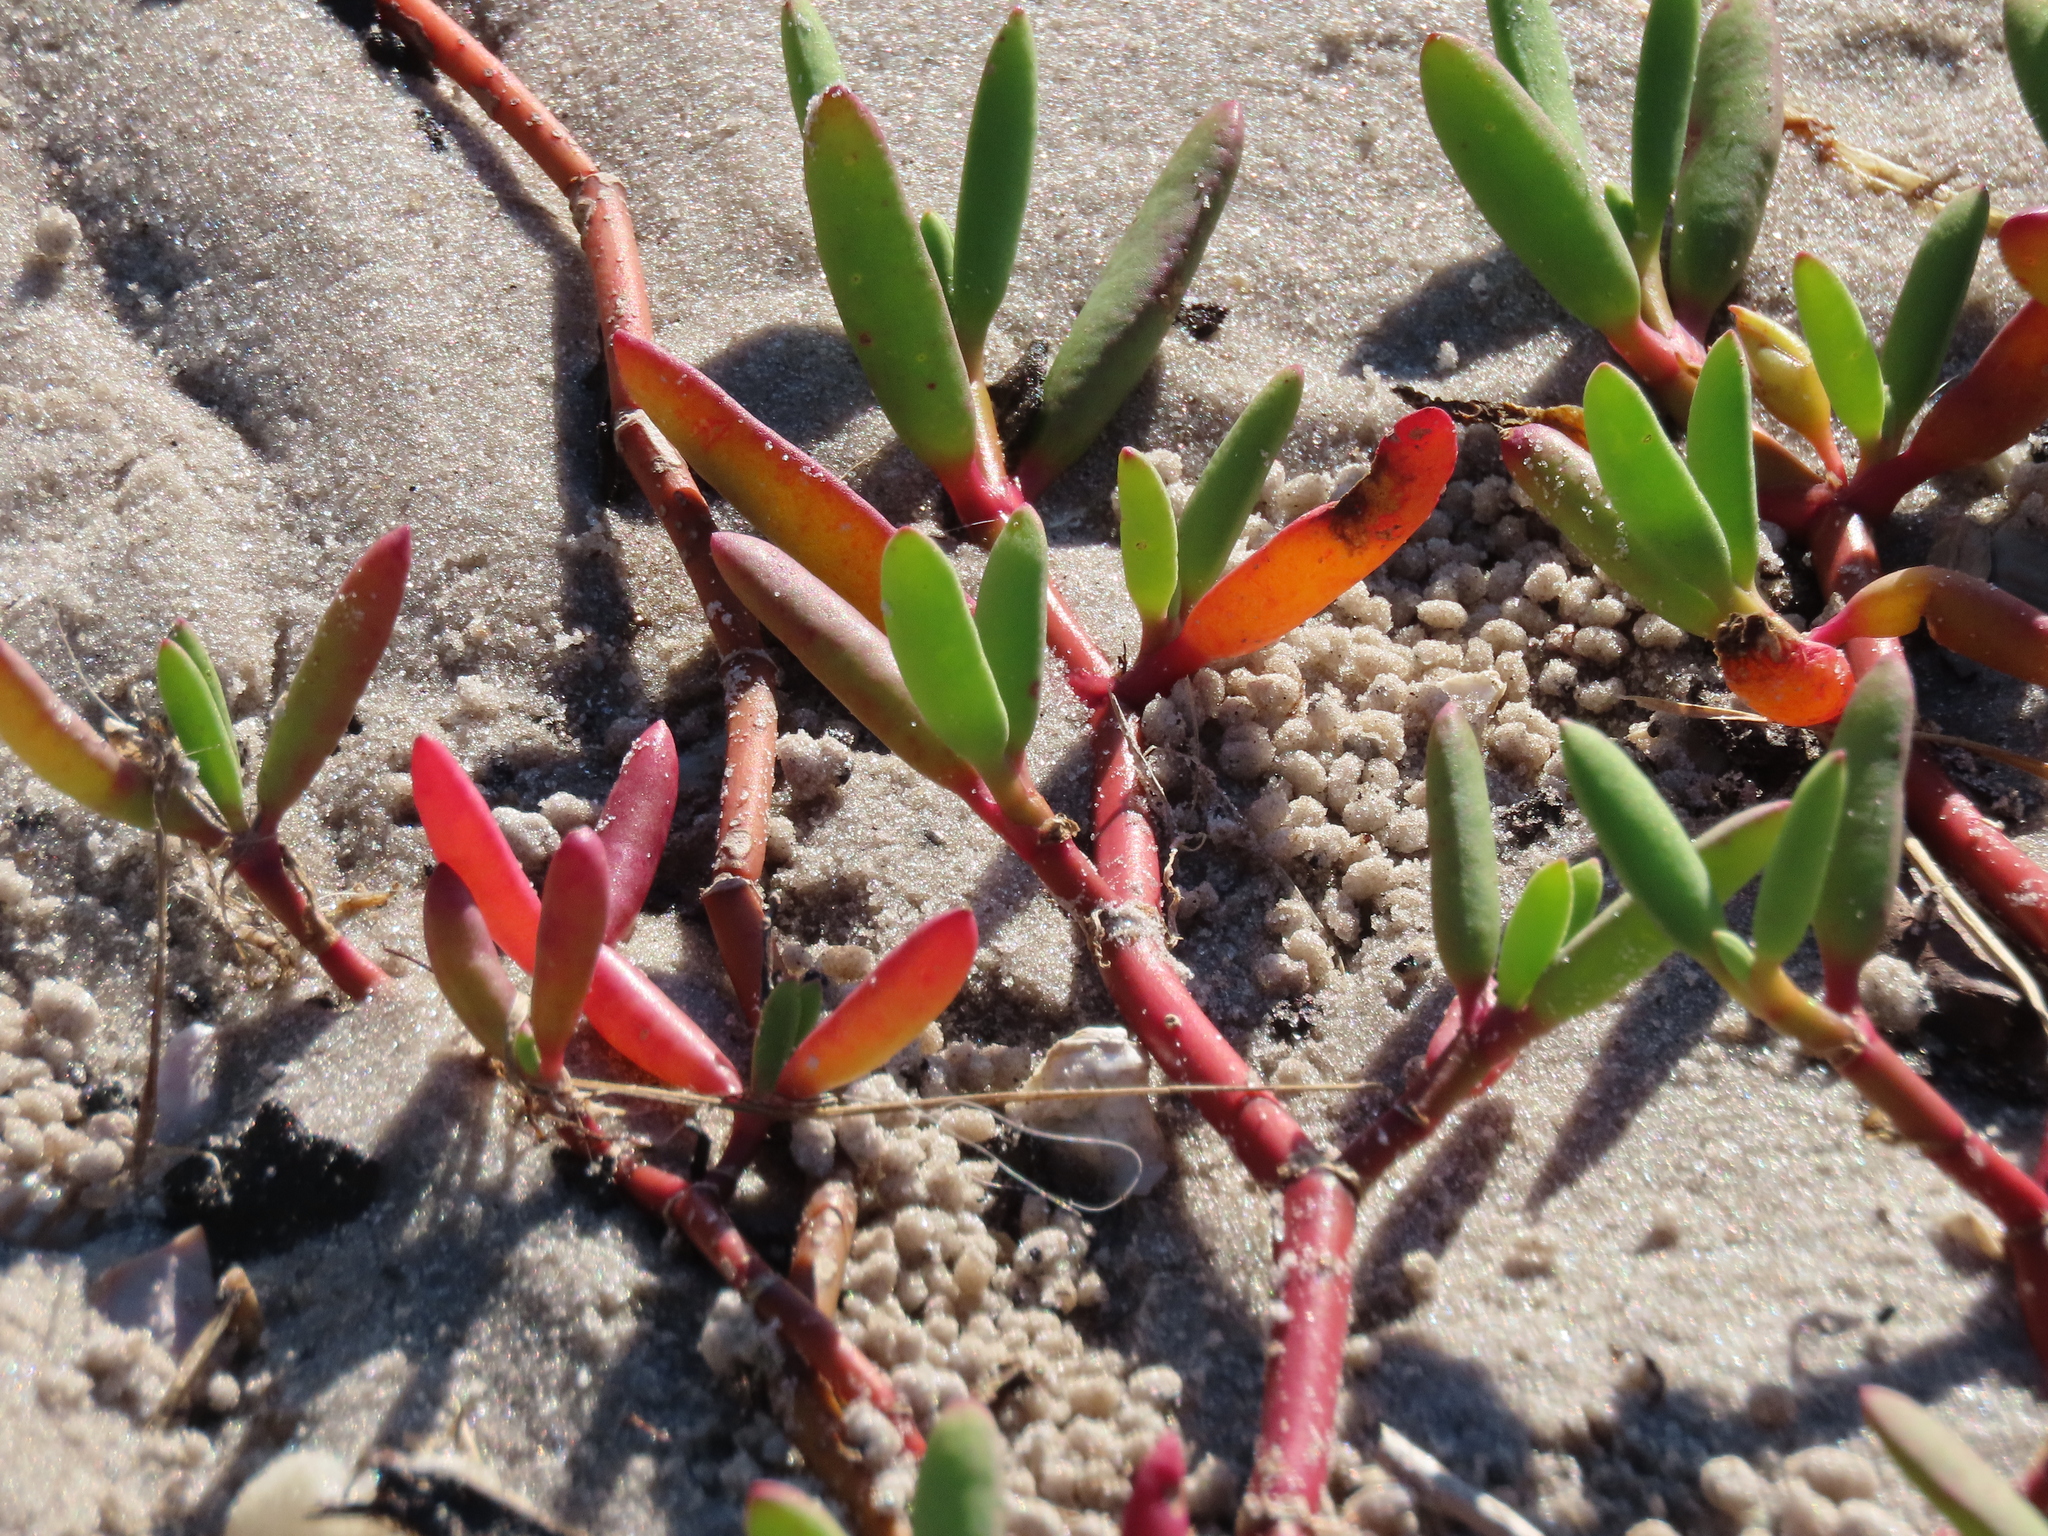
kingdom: Plantae
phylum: Tracheophyta
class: Magnoliopsida
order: Caryophyllales
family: Aizoaceae
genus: Sesuvium
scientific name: Sesuvium portulacastrum
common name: Sea-purslane
